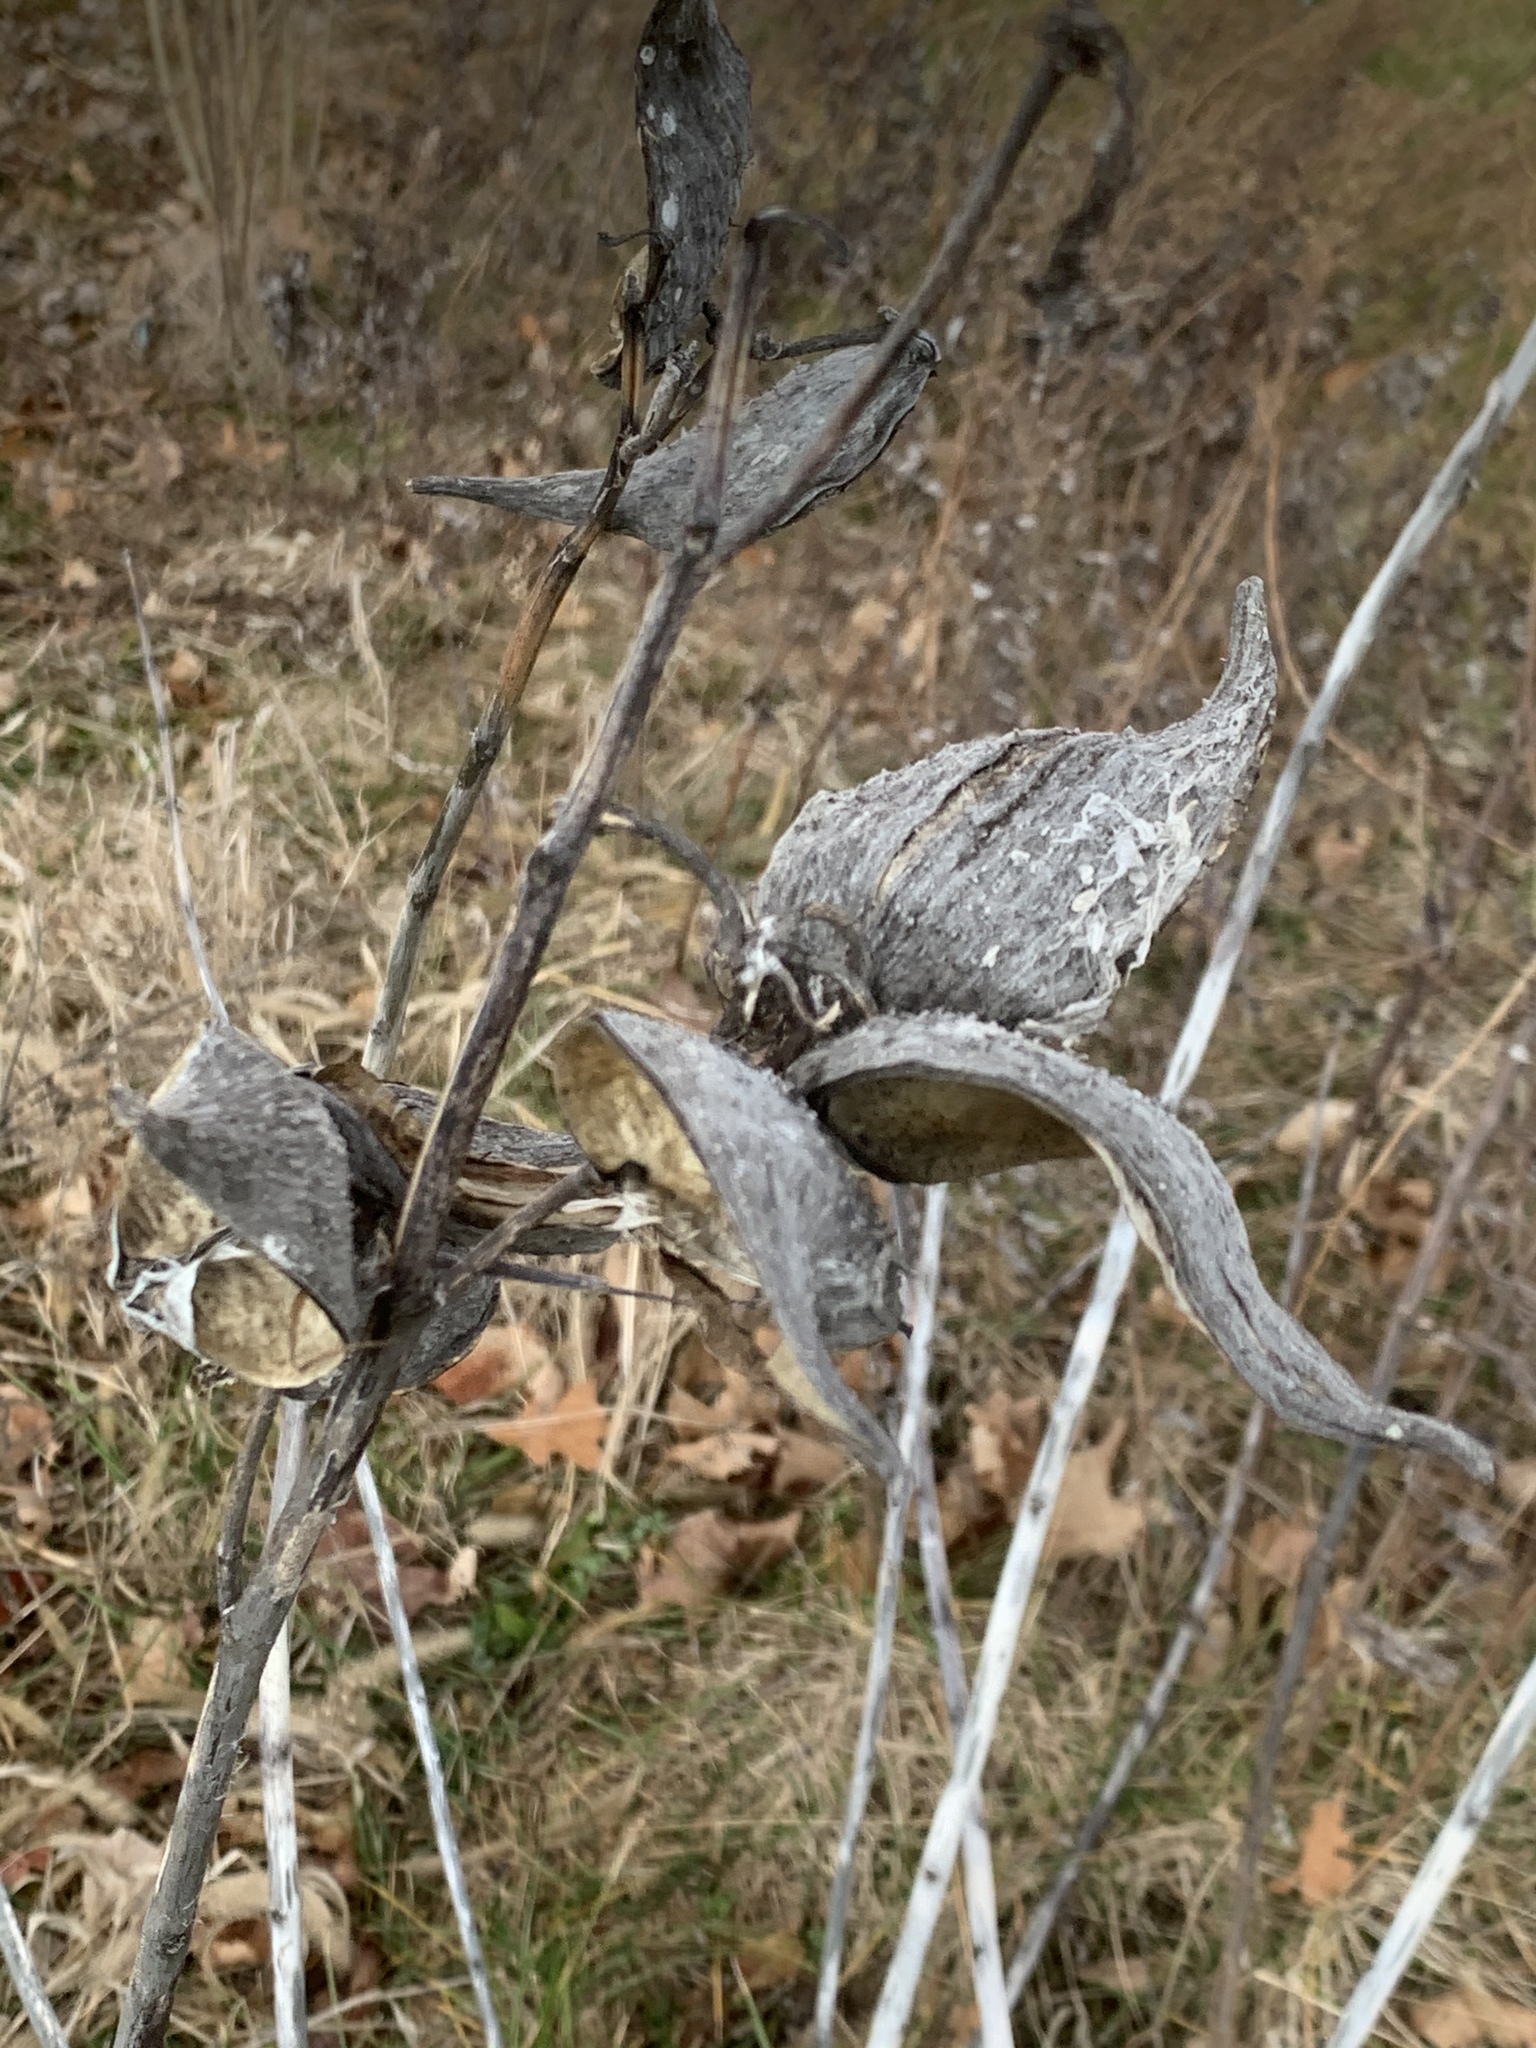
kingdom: Plantae
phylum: Tracheophyta
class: Magnoliopsida
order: Gentianales
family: Apocynaceae
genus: Asclepias
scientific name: Asclepias syriaca
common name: Common milkweed
